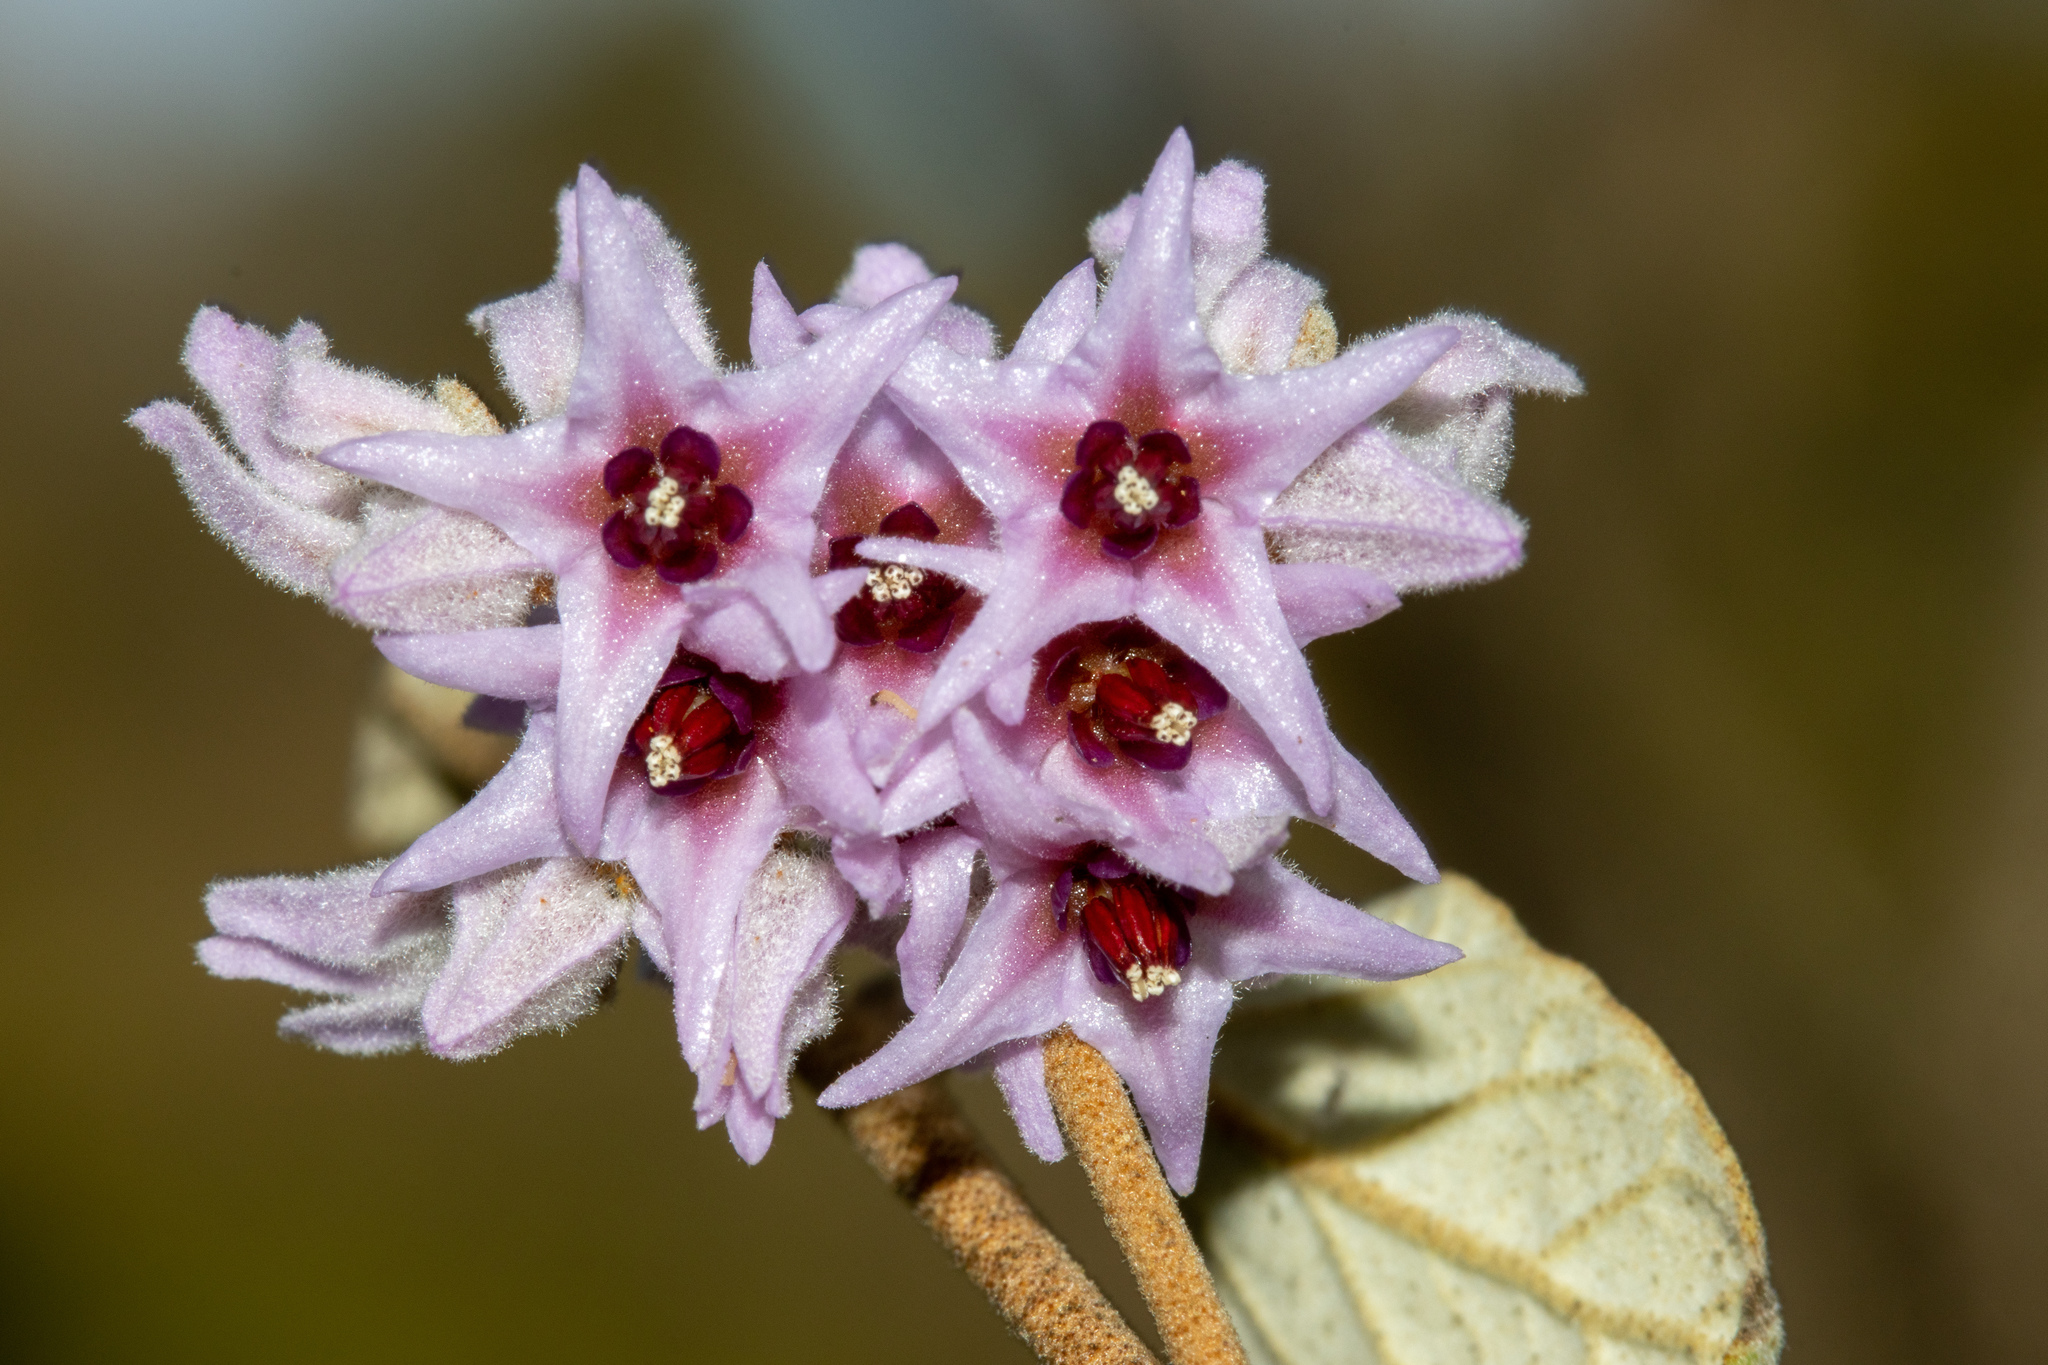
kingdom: Plantae
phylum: Tracheophyta
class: Magnoliopsida
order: Malvales
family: Malvaceae
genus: Lasiopetalum
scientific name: Lasiopetalum discolor
